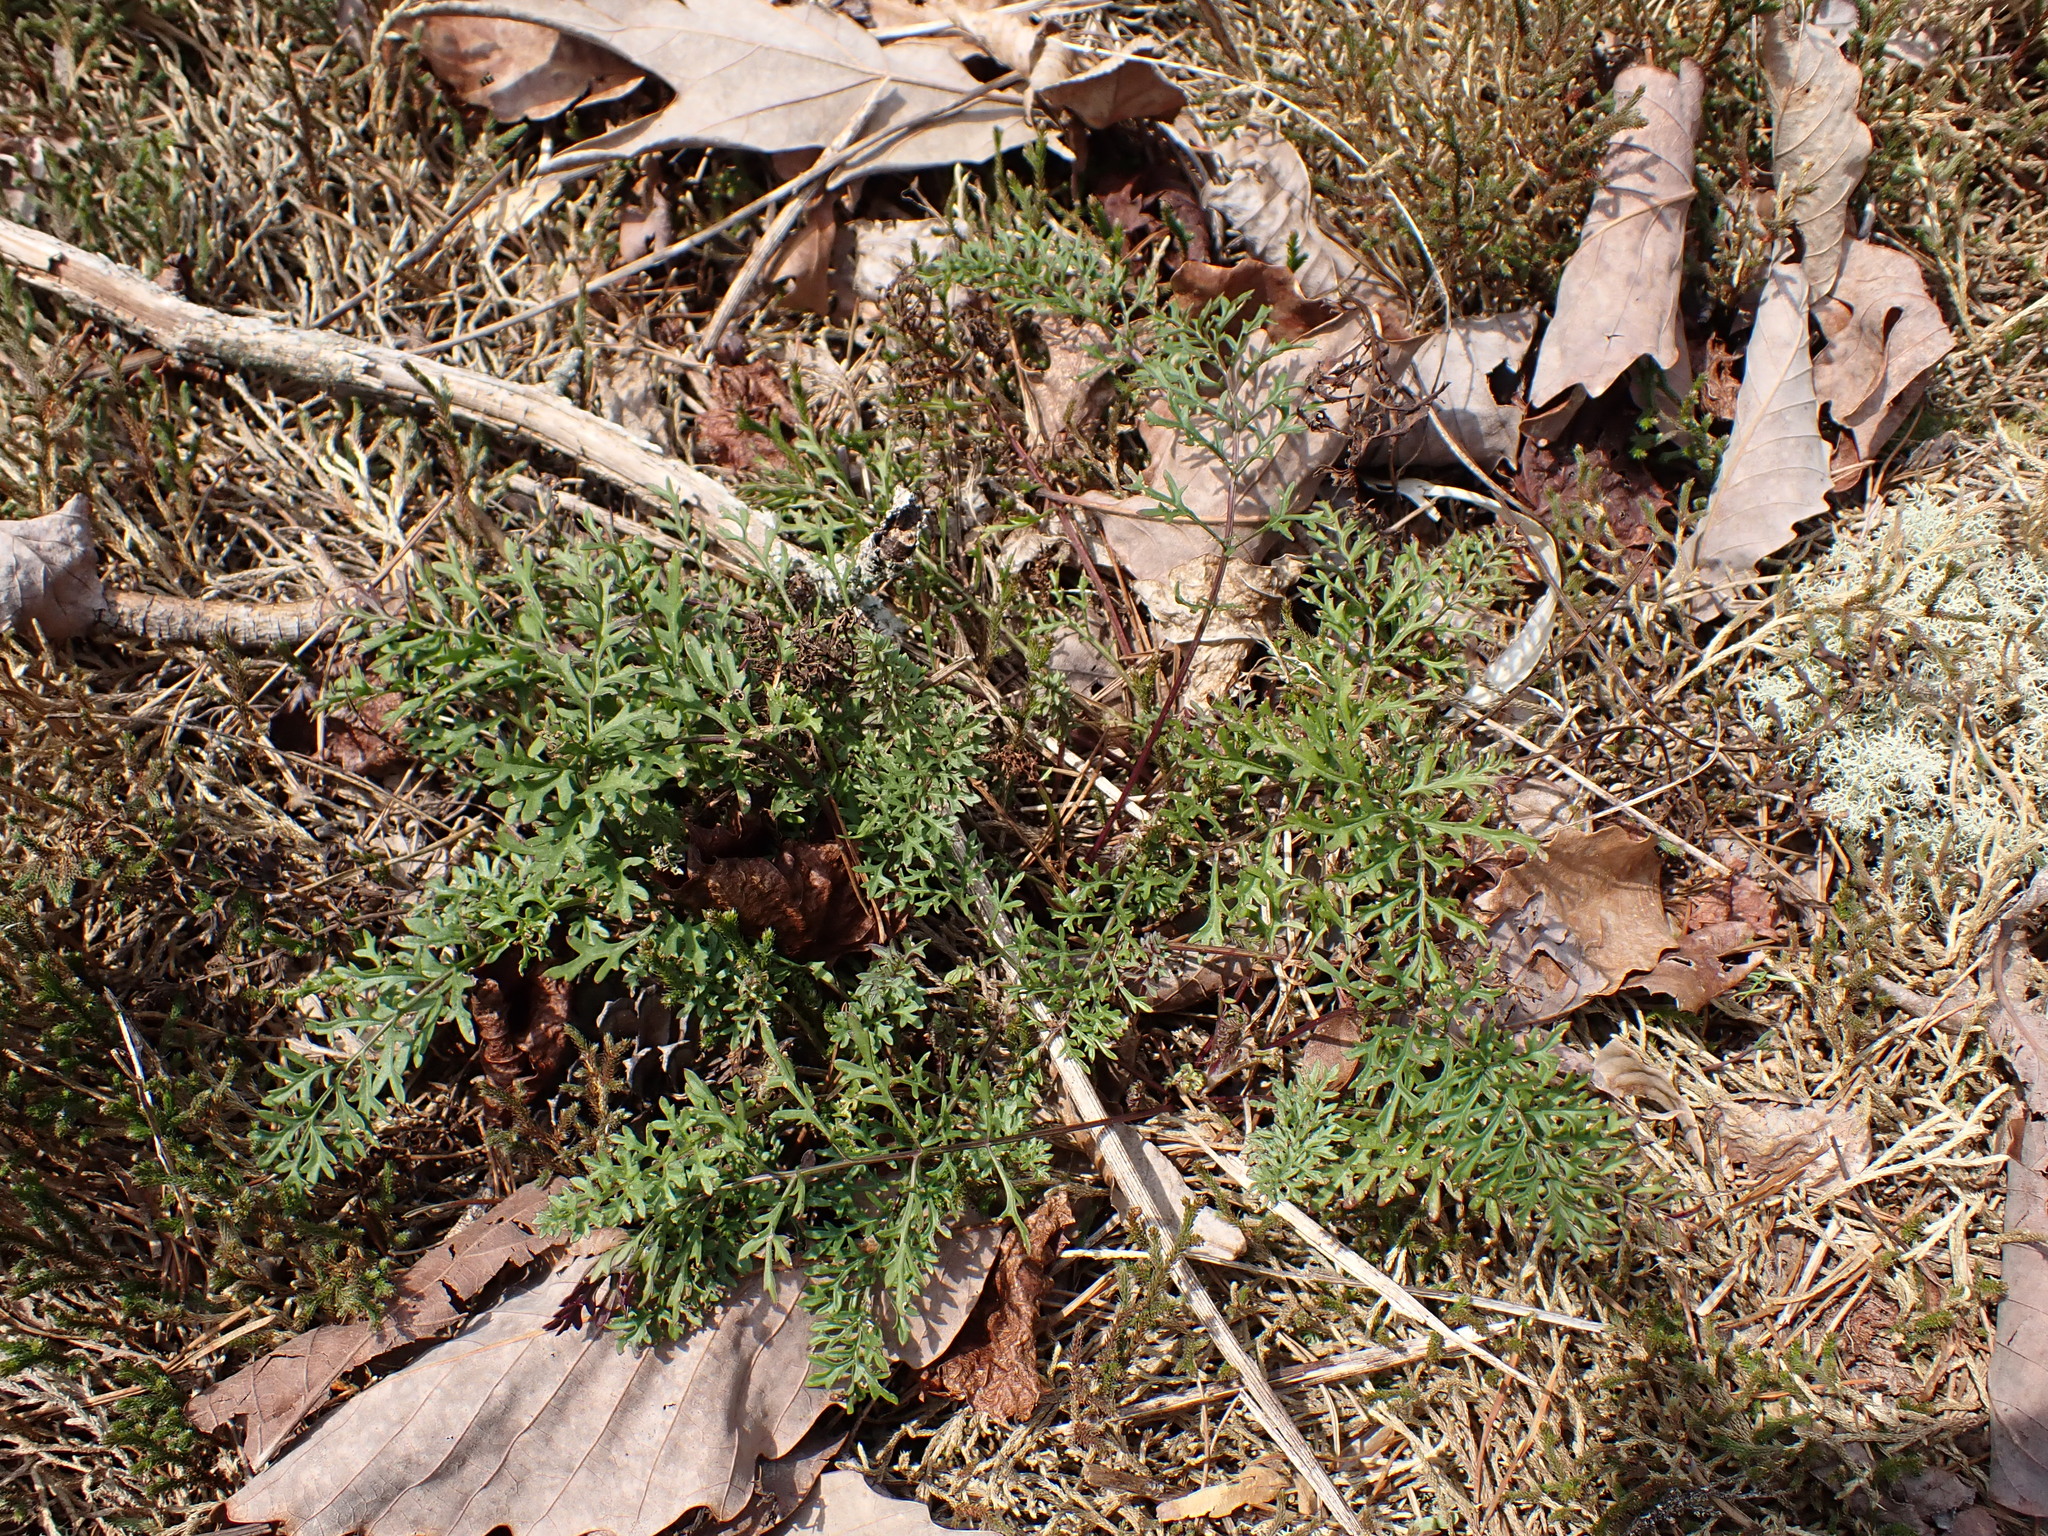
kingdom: Plantae
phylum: Tracheophyta
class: Magnoliopsida
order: Asterales
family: Asteraceae
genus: Packera
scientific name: Packera millefolia
